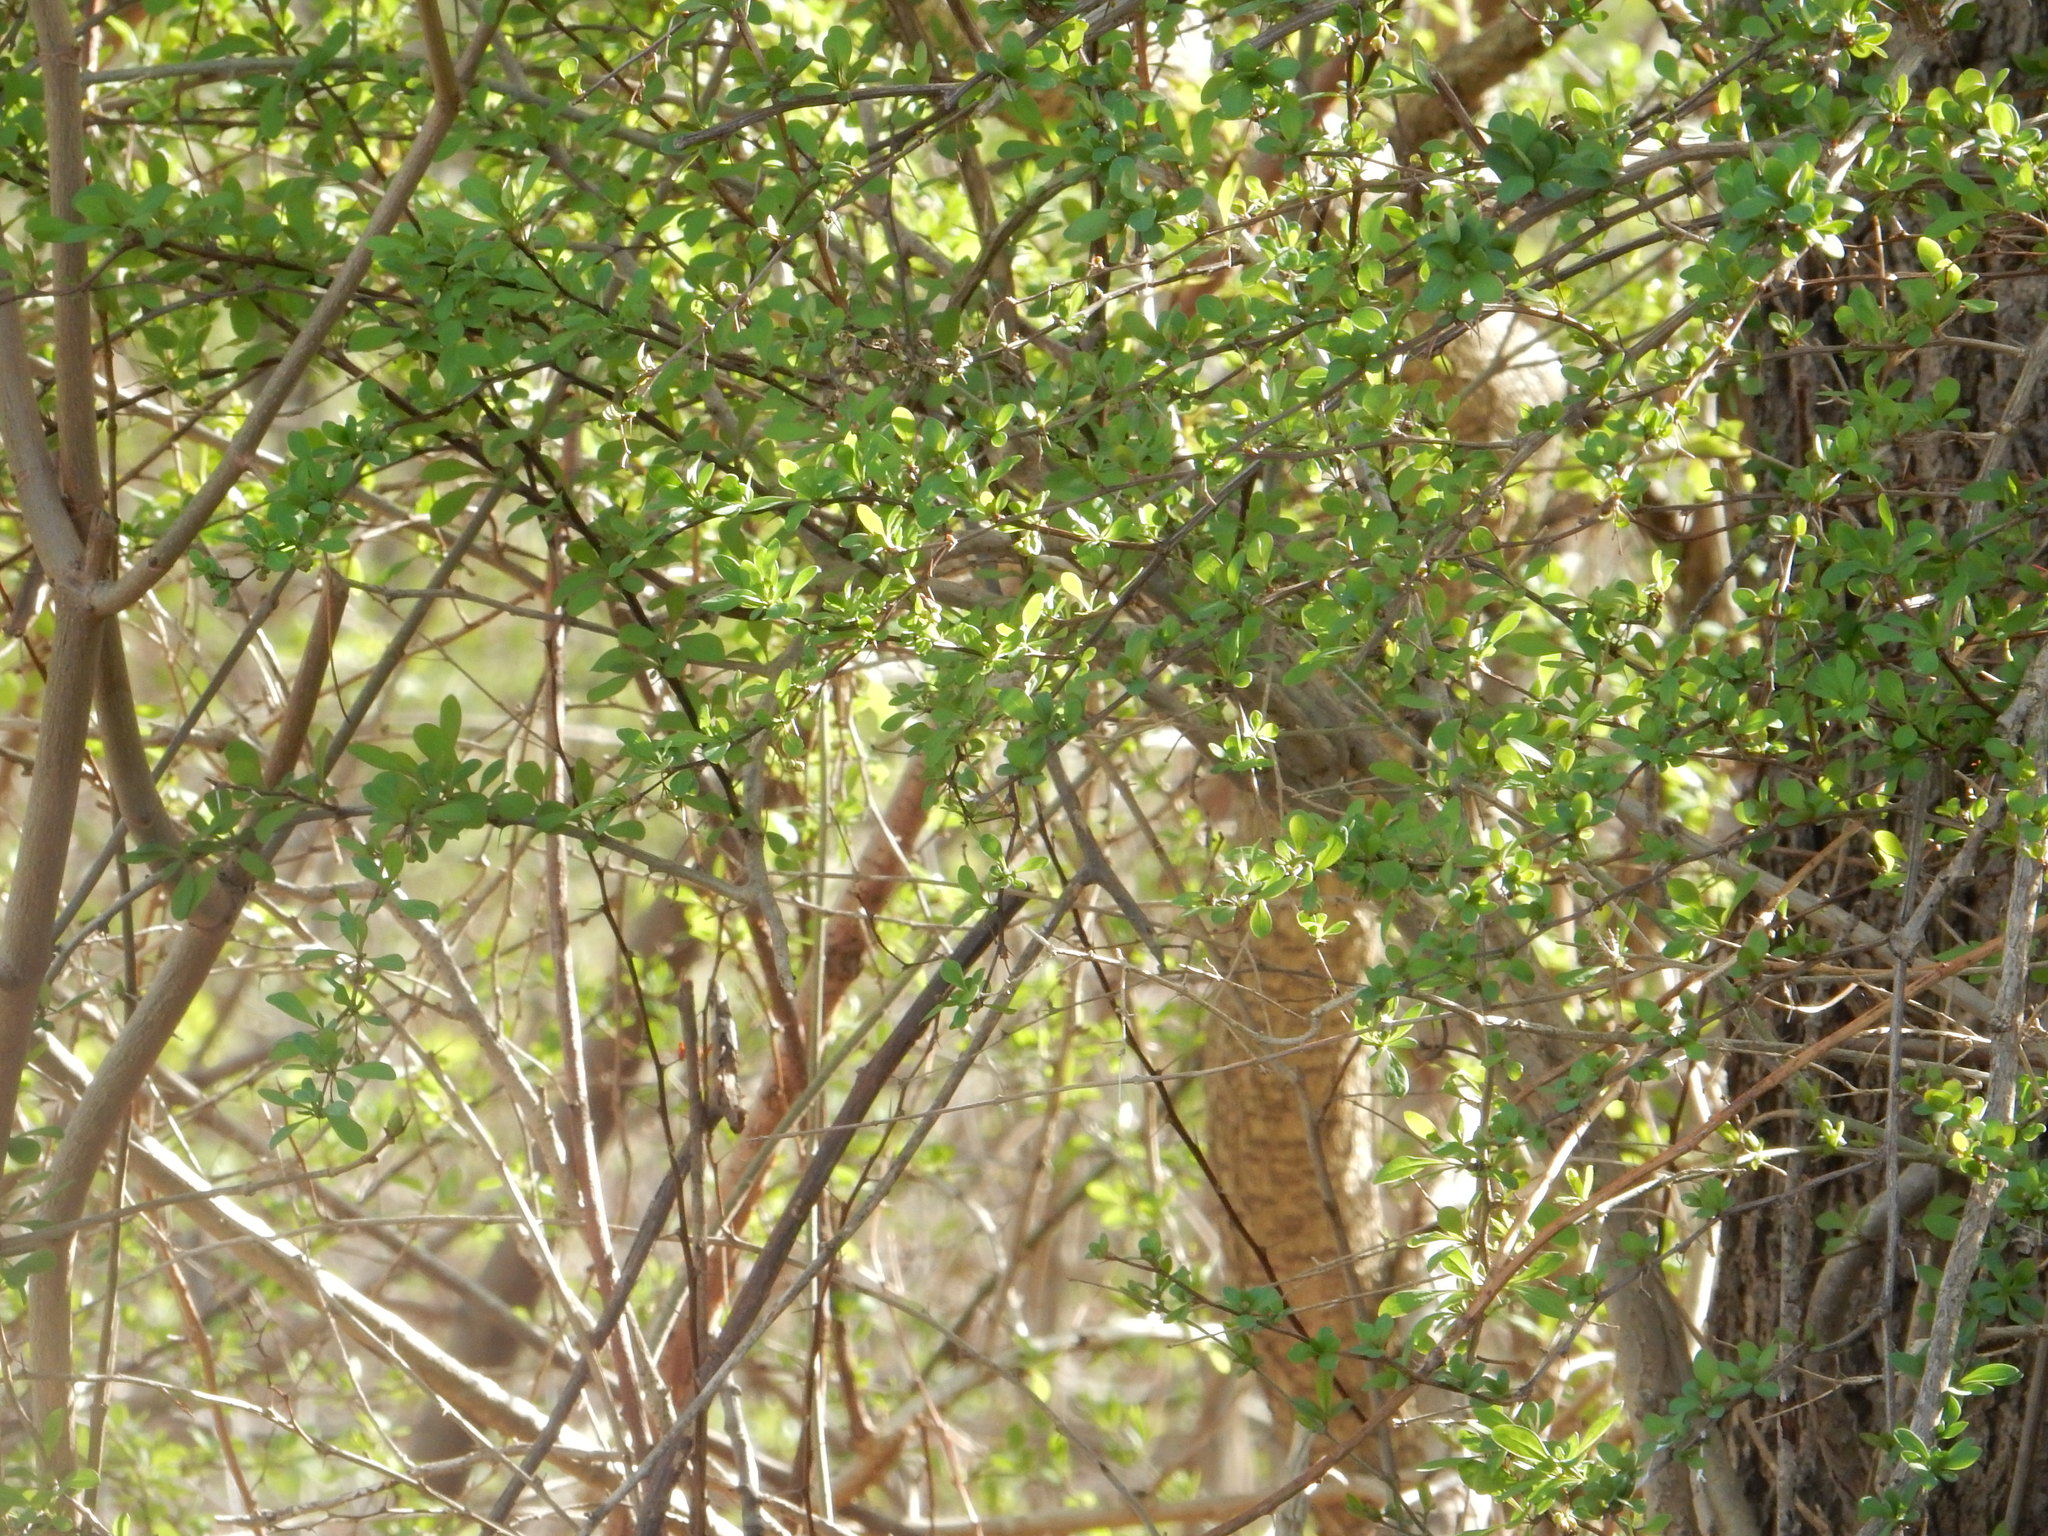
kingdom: Plantae
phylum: Tracheophyta
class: Magnoliopsida
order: Ranunculales
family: Berberidaceae
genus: Berberis
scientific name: Berberis thunbergii
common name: Japanese barberry
